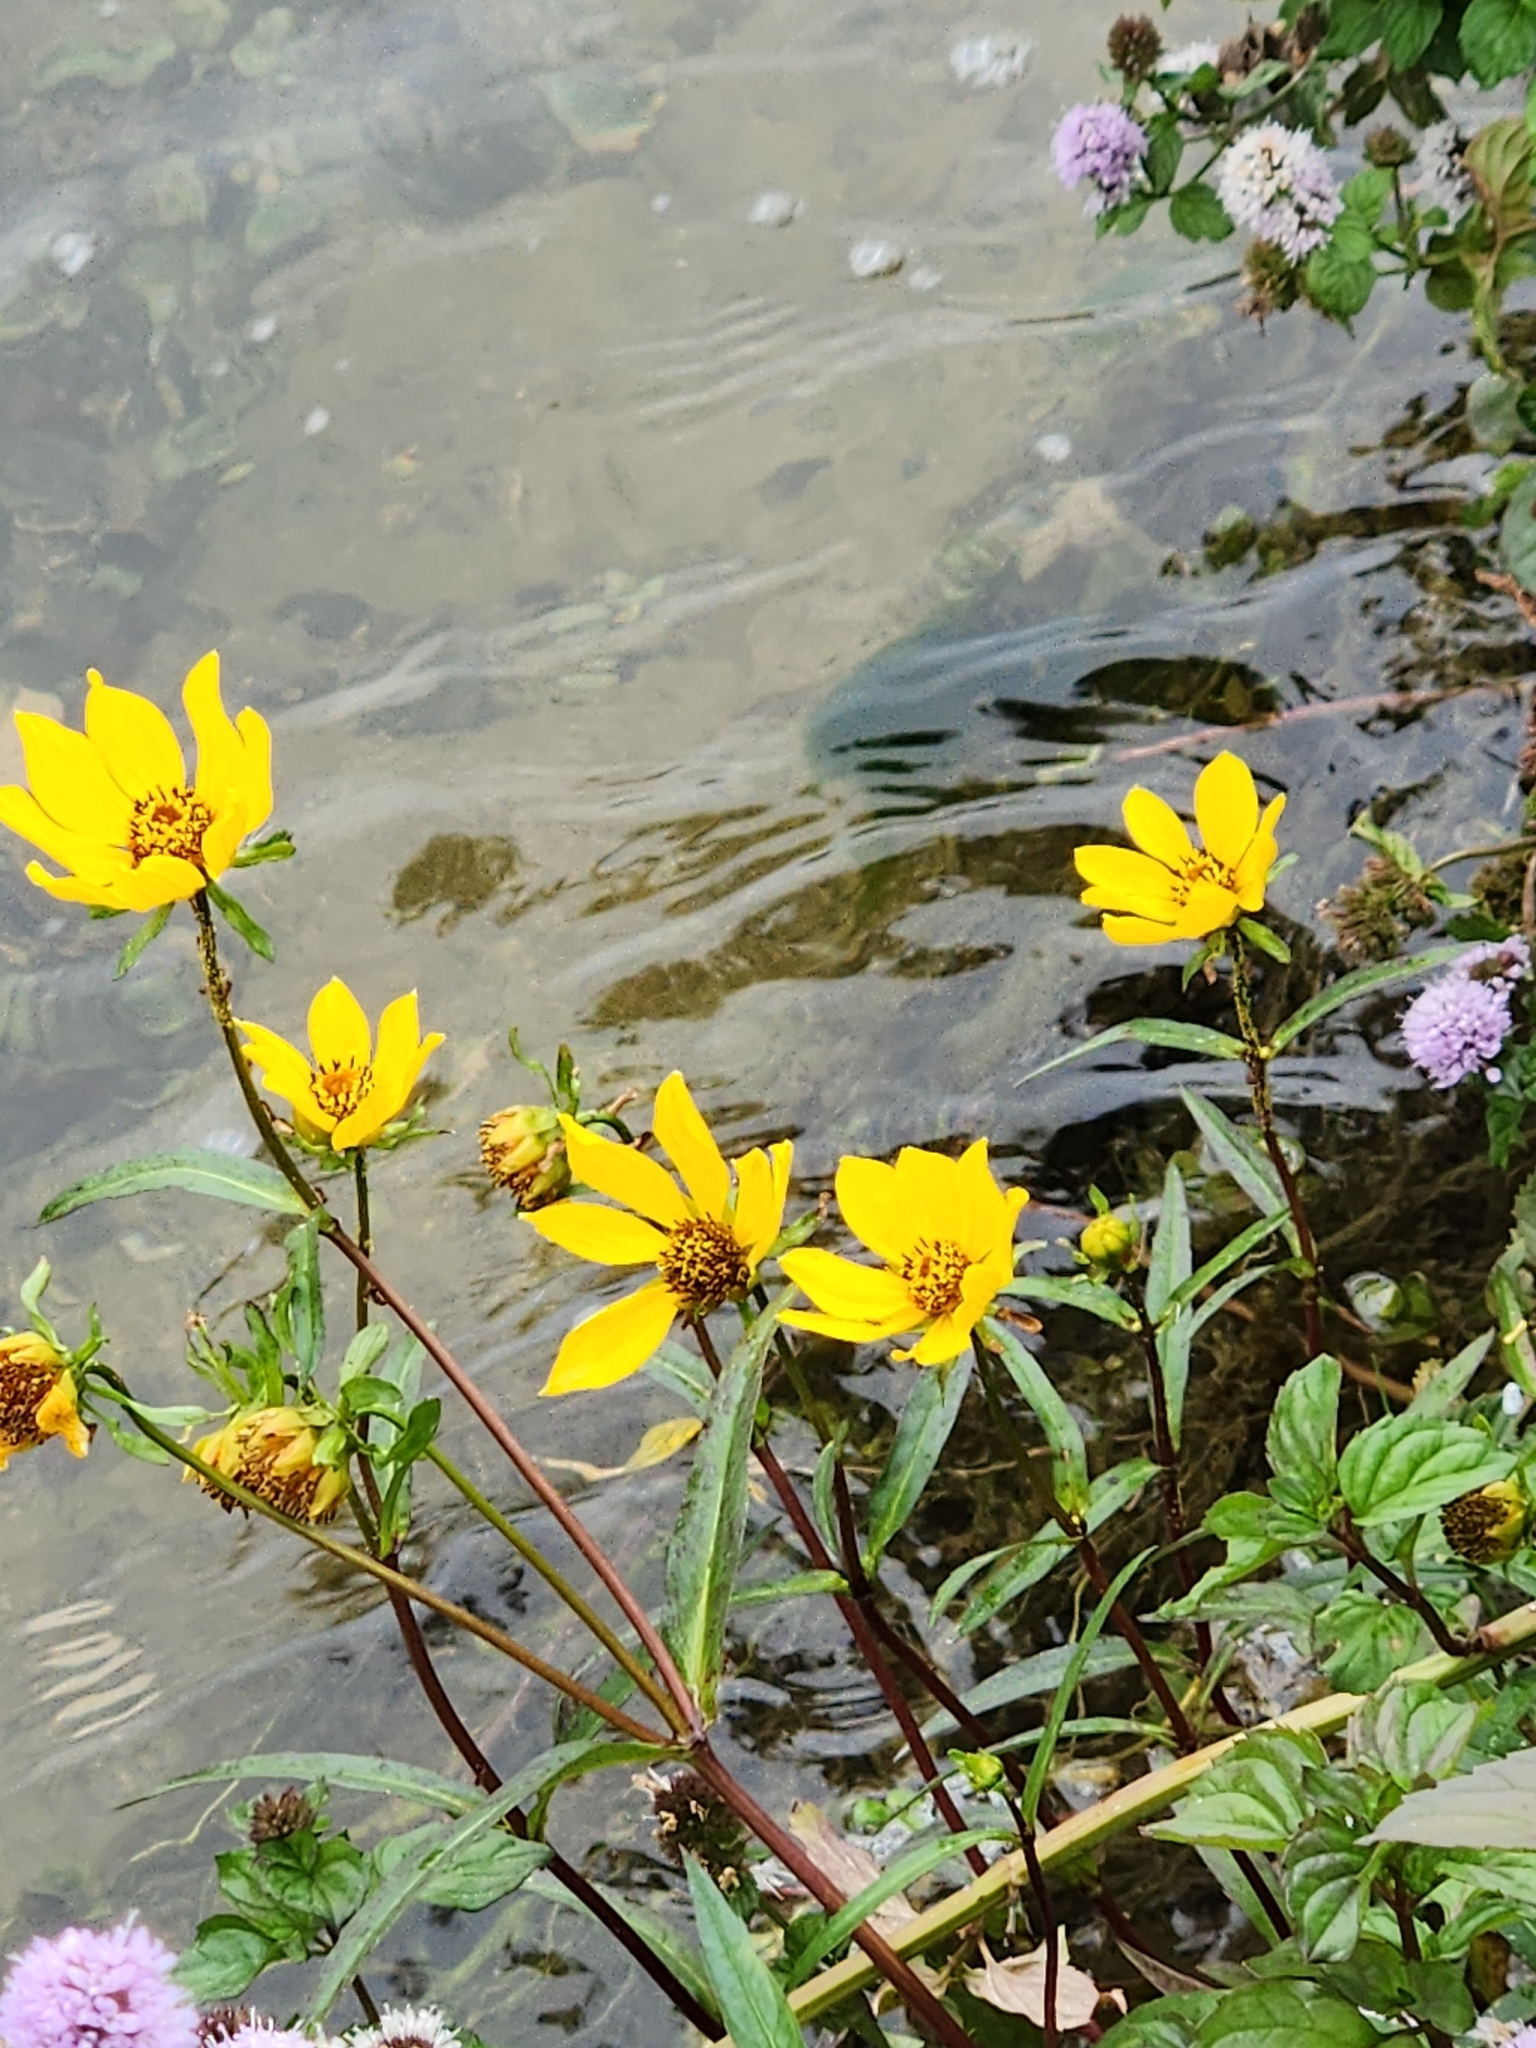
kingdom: Plantae
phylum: Tracheophyta
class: Magnoliopsida
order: Asterales
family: Asteraceae
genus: Bidens
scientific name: Bidens laevis
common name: Larger bur-marigold
